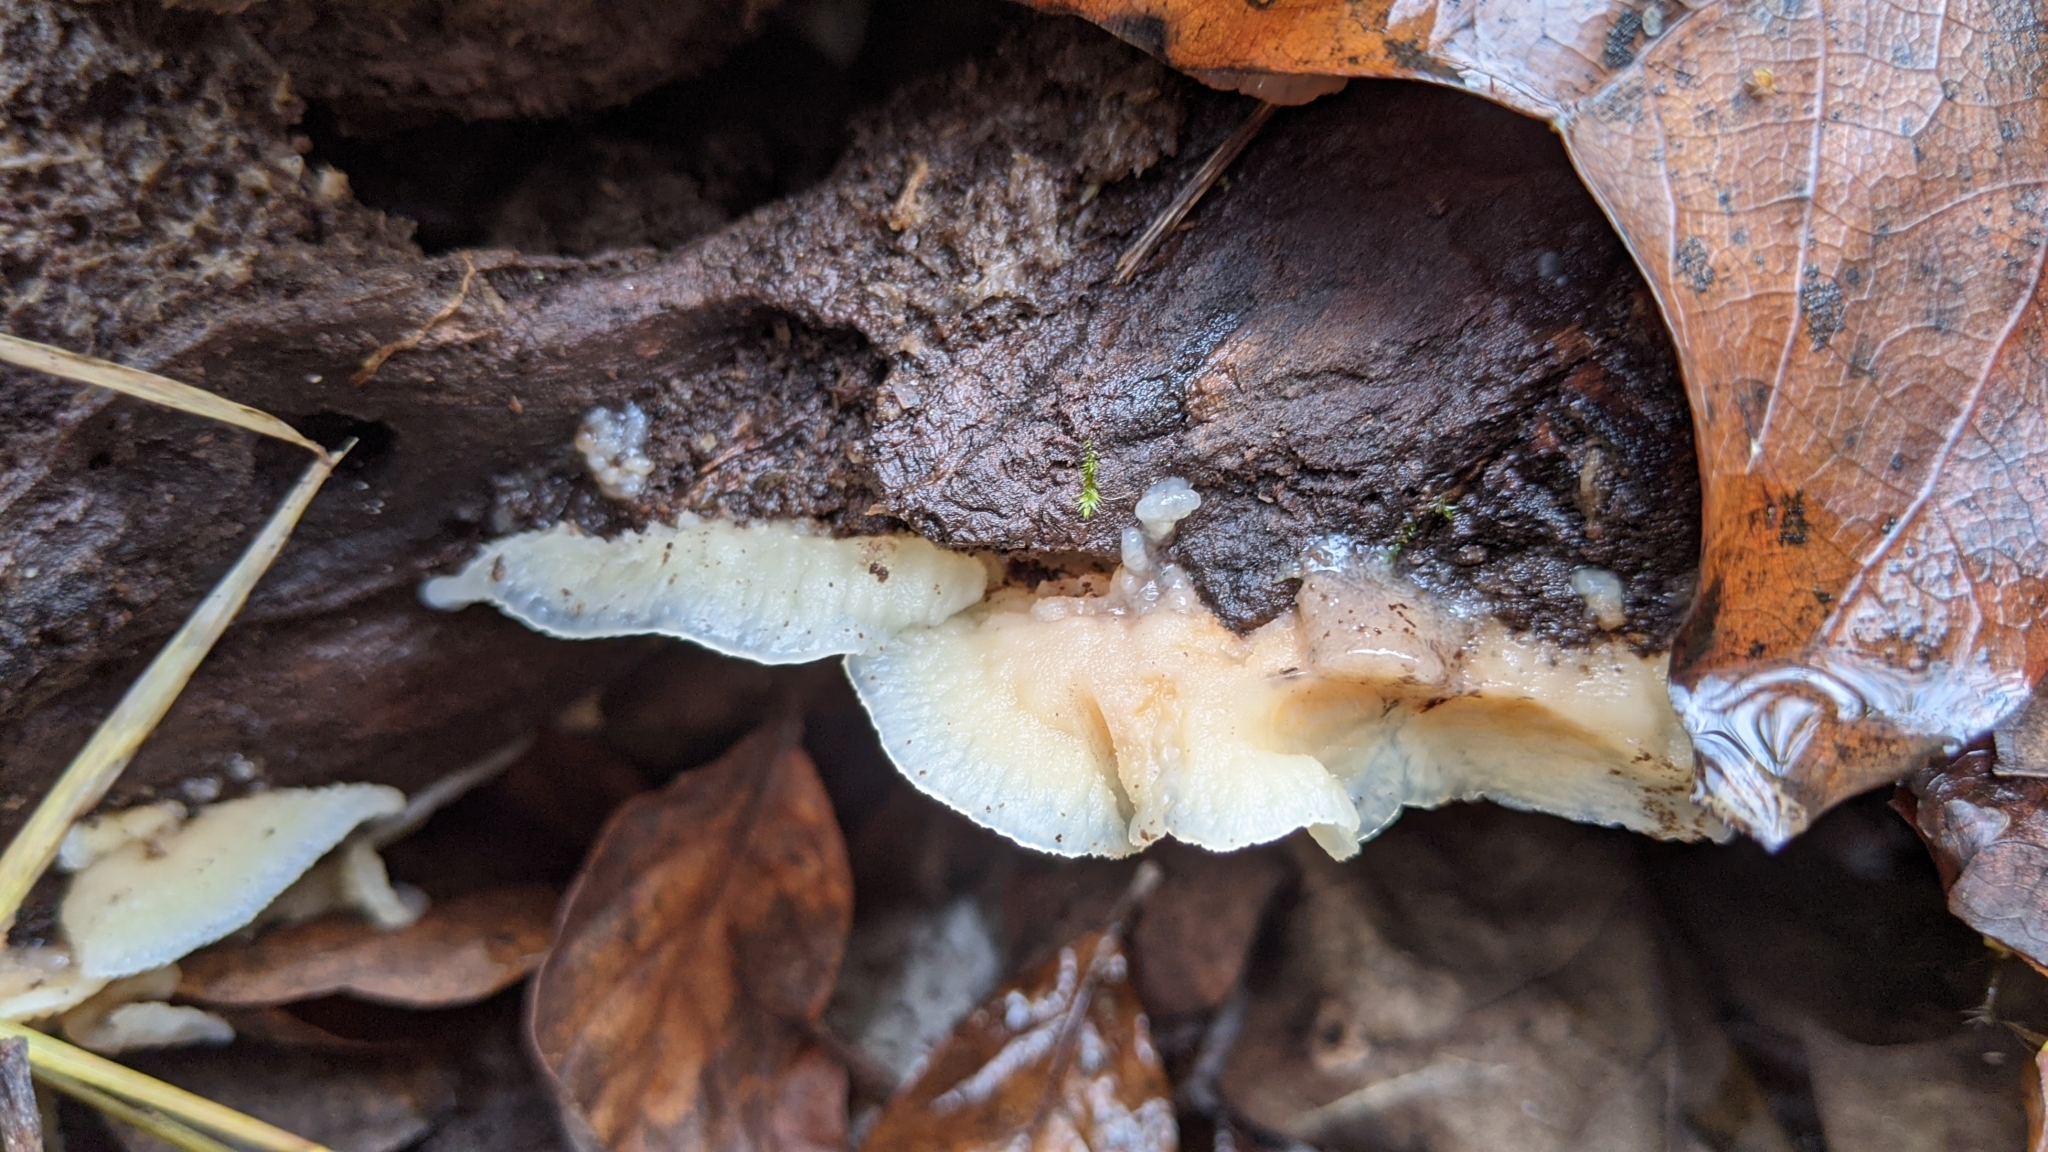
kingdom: Fungi
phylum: Basidiomycota
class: Agaricomycetes
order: Polyporales
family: Meruliaceae
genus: Phlebia
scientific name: Phlebia tremellosa
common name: Jelly rot
